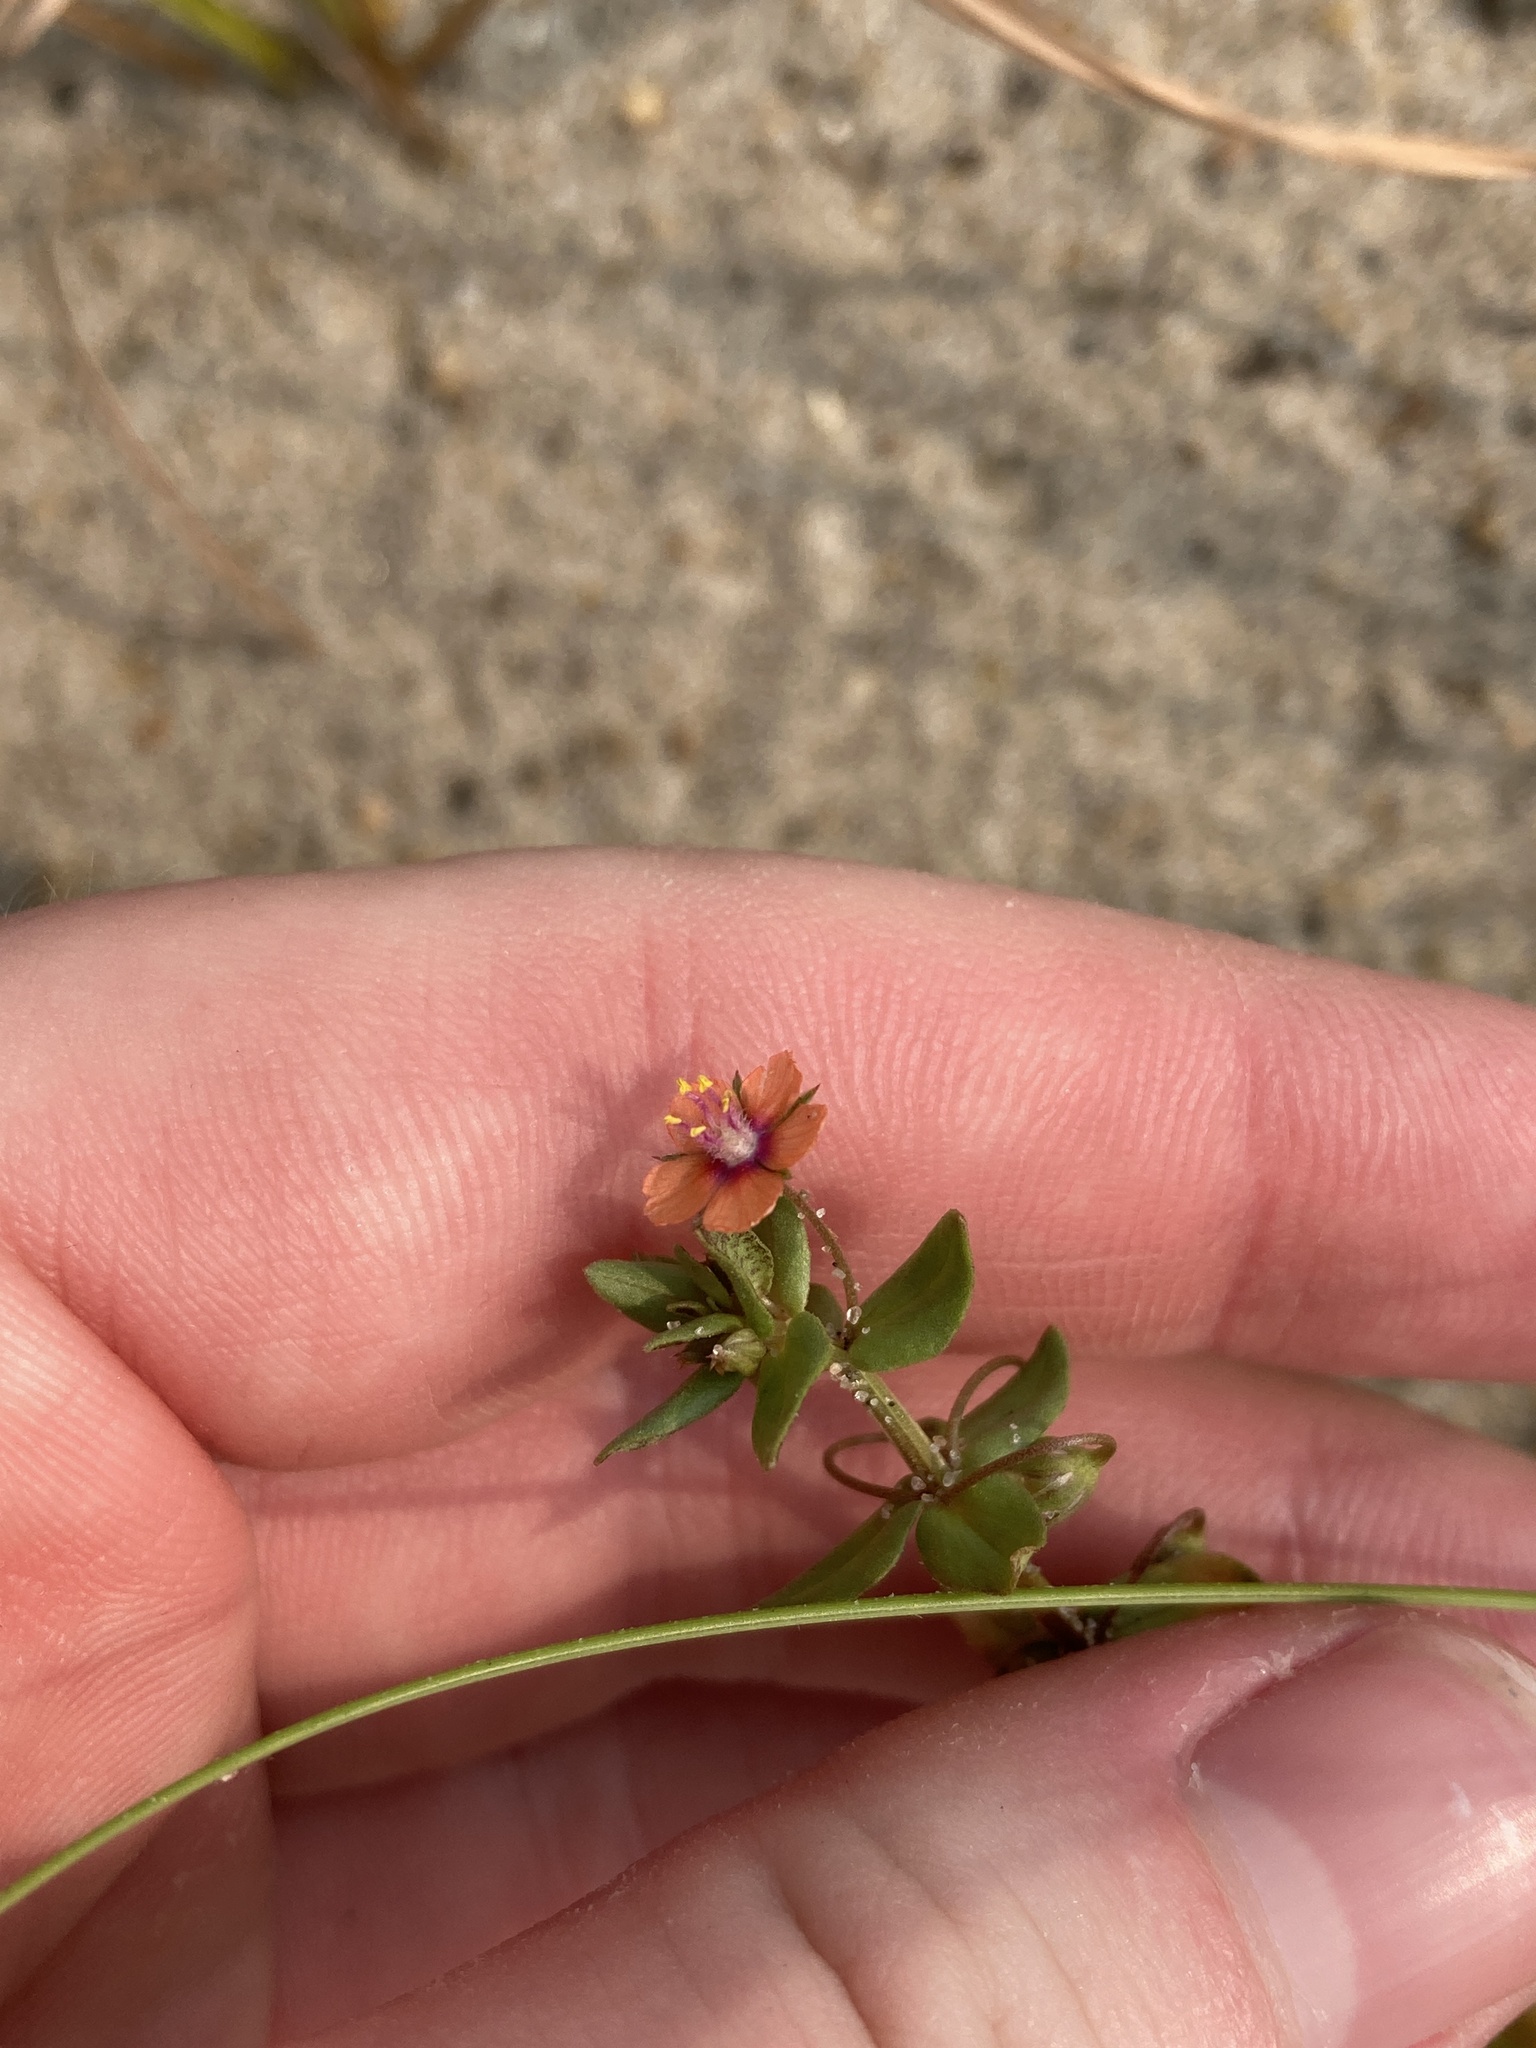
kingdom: Plantae
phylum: Tracheophyta
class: Magnoliopsida
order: Ericales
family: Primulaceae
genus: Lysimachia
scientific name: Lysimachia arvensis
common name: Scarlet pimpernel
